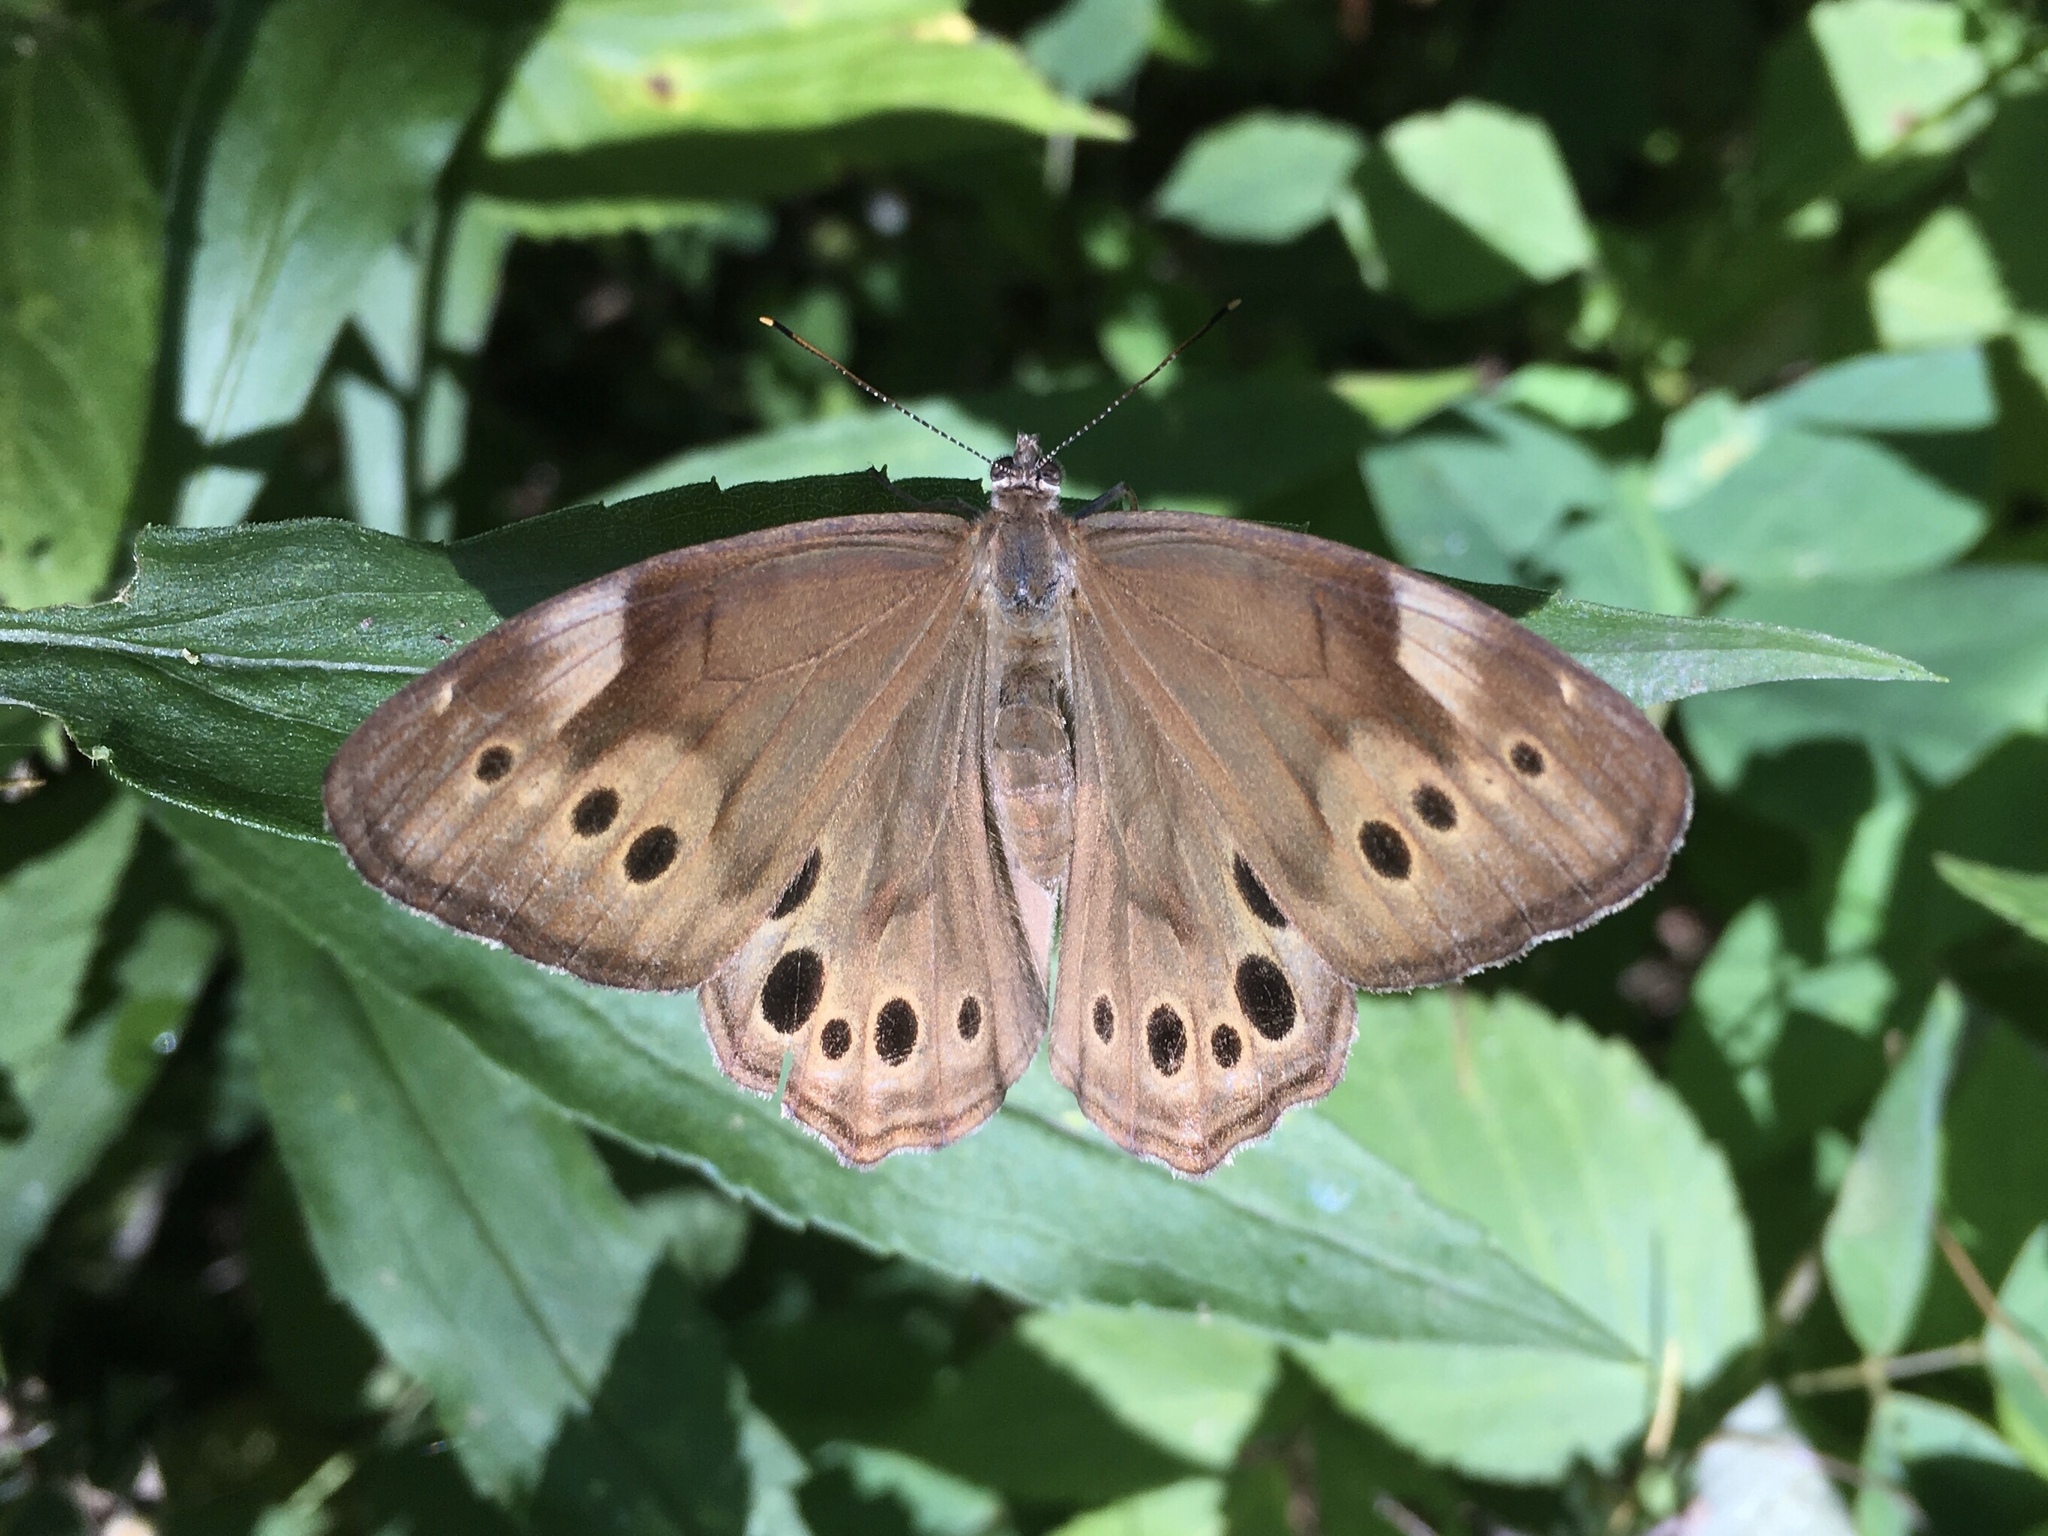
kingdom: Animalia
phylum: Arthropoda
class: Insecta
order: Lepidoptera
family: Nymphalidae
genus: Lethe
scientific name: Lethe anthedon
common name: Northern pearly-eye
